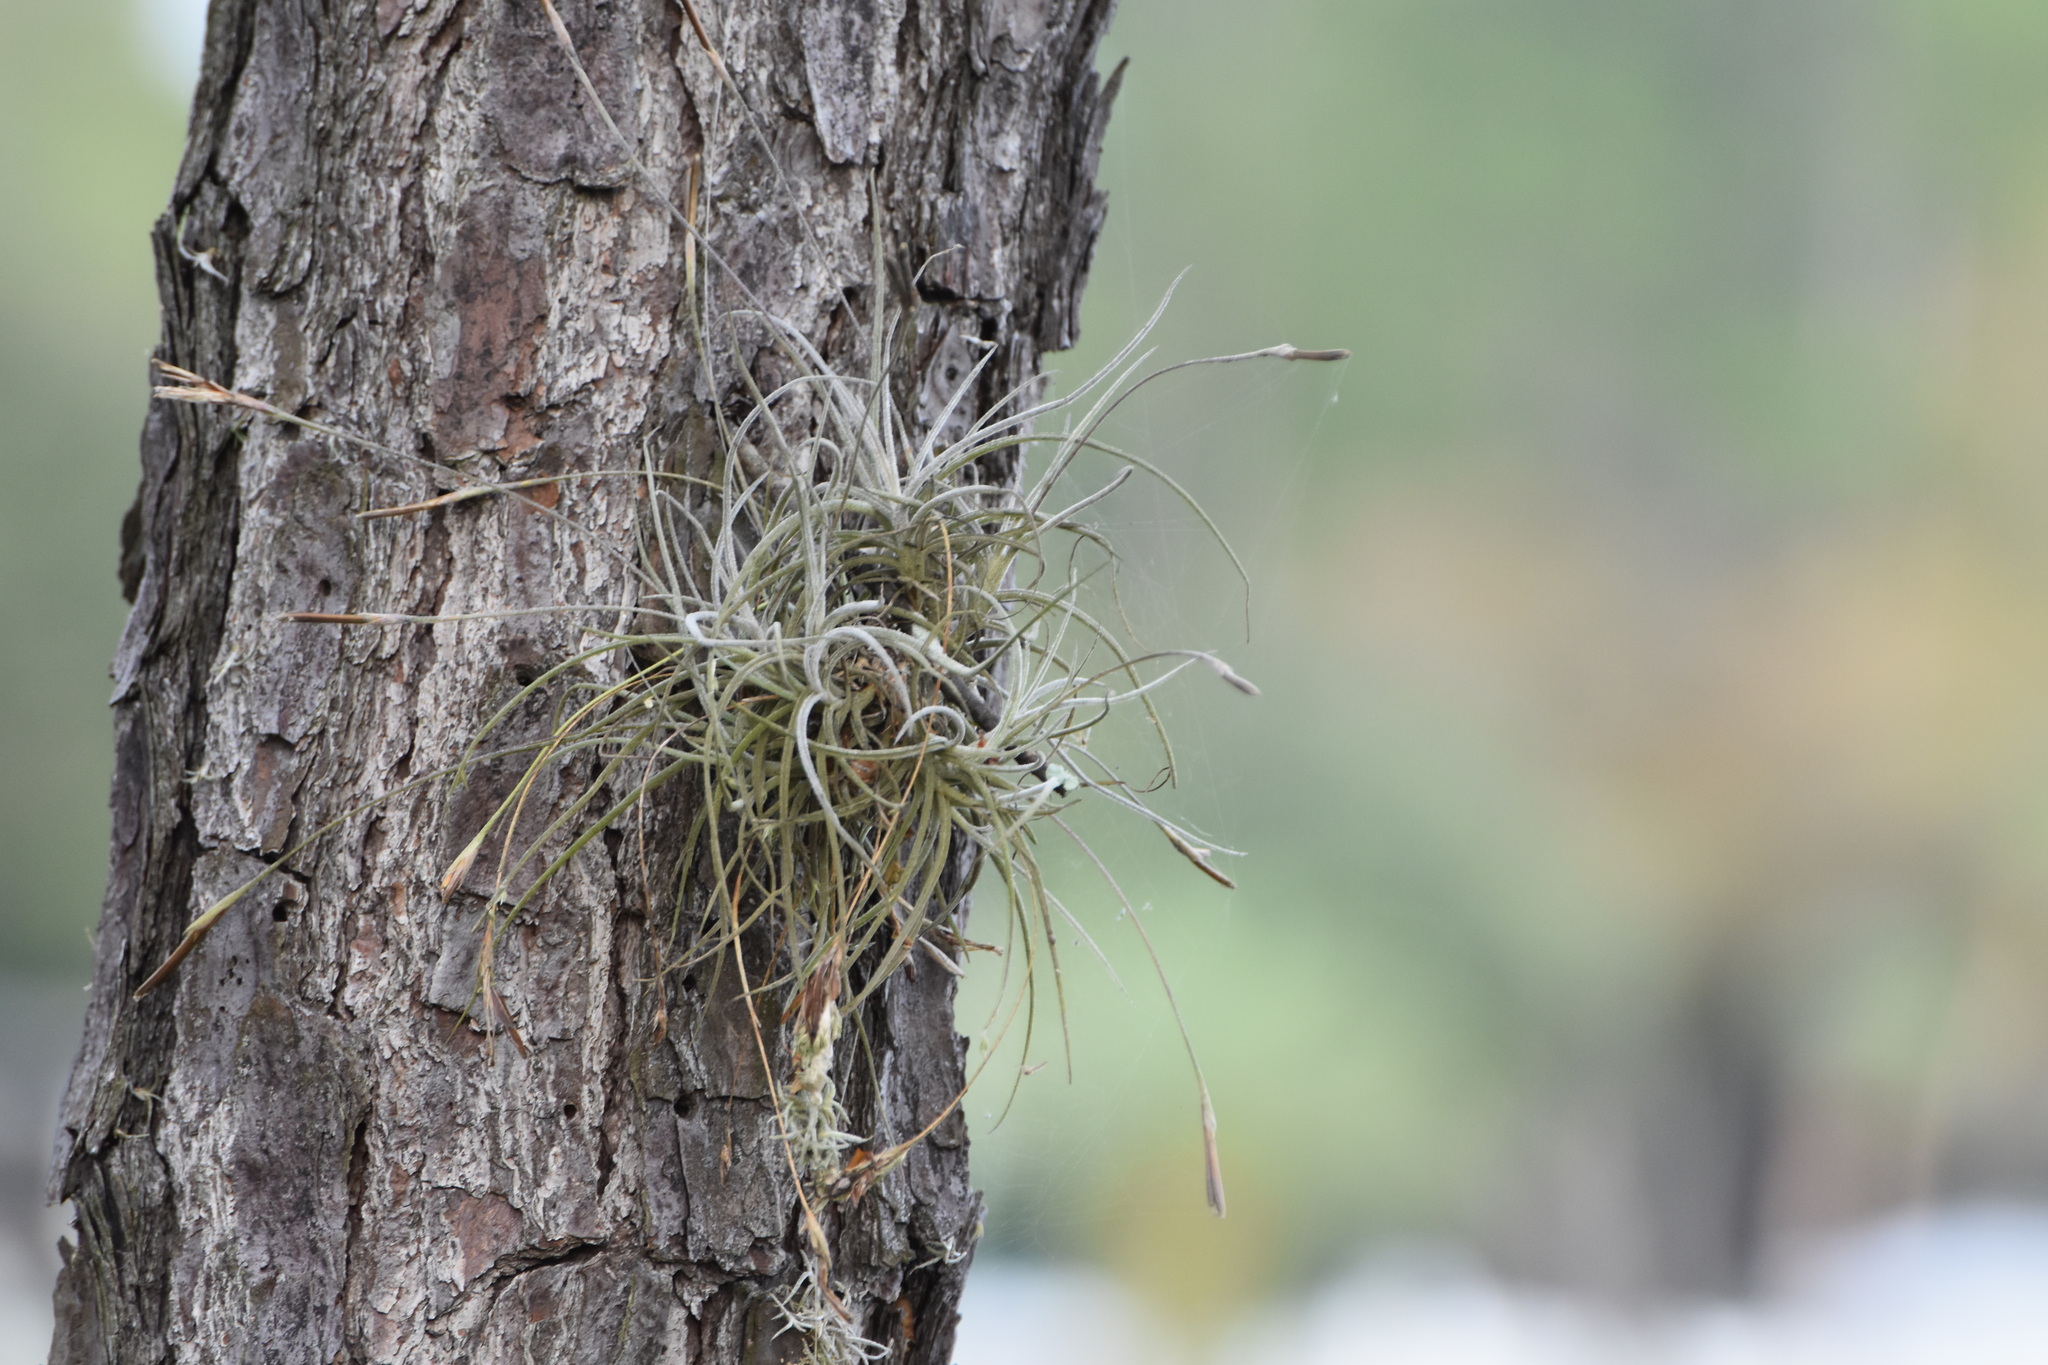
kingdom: Plantae
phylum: Tracheophyta
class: Liliopsida
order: Poales
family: Bromeliaceae
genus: Tillandsia
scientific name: Tillandsia recurvata
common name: Small ballmoss
